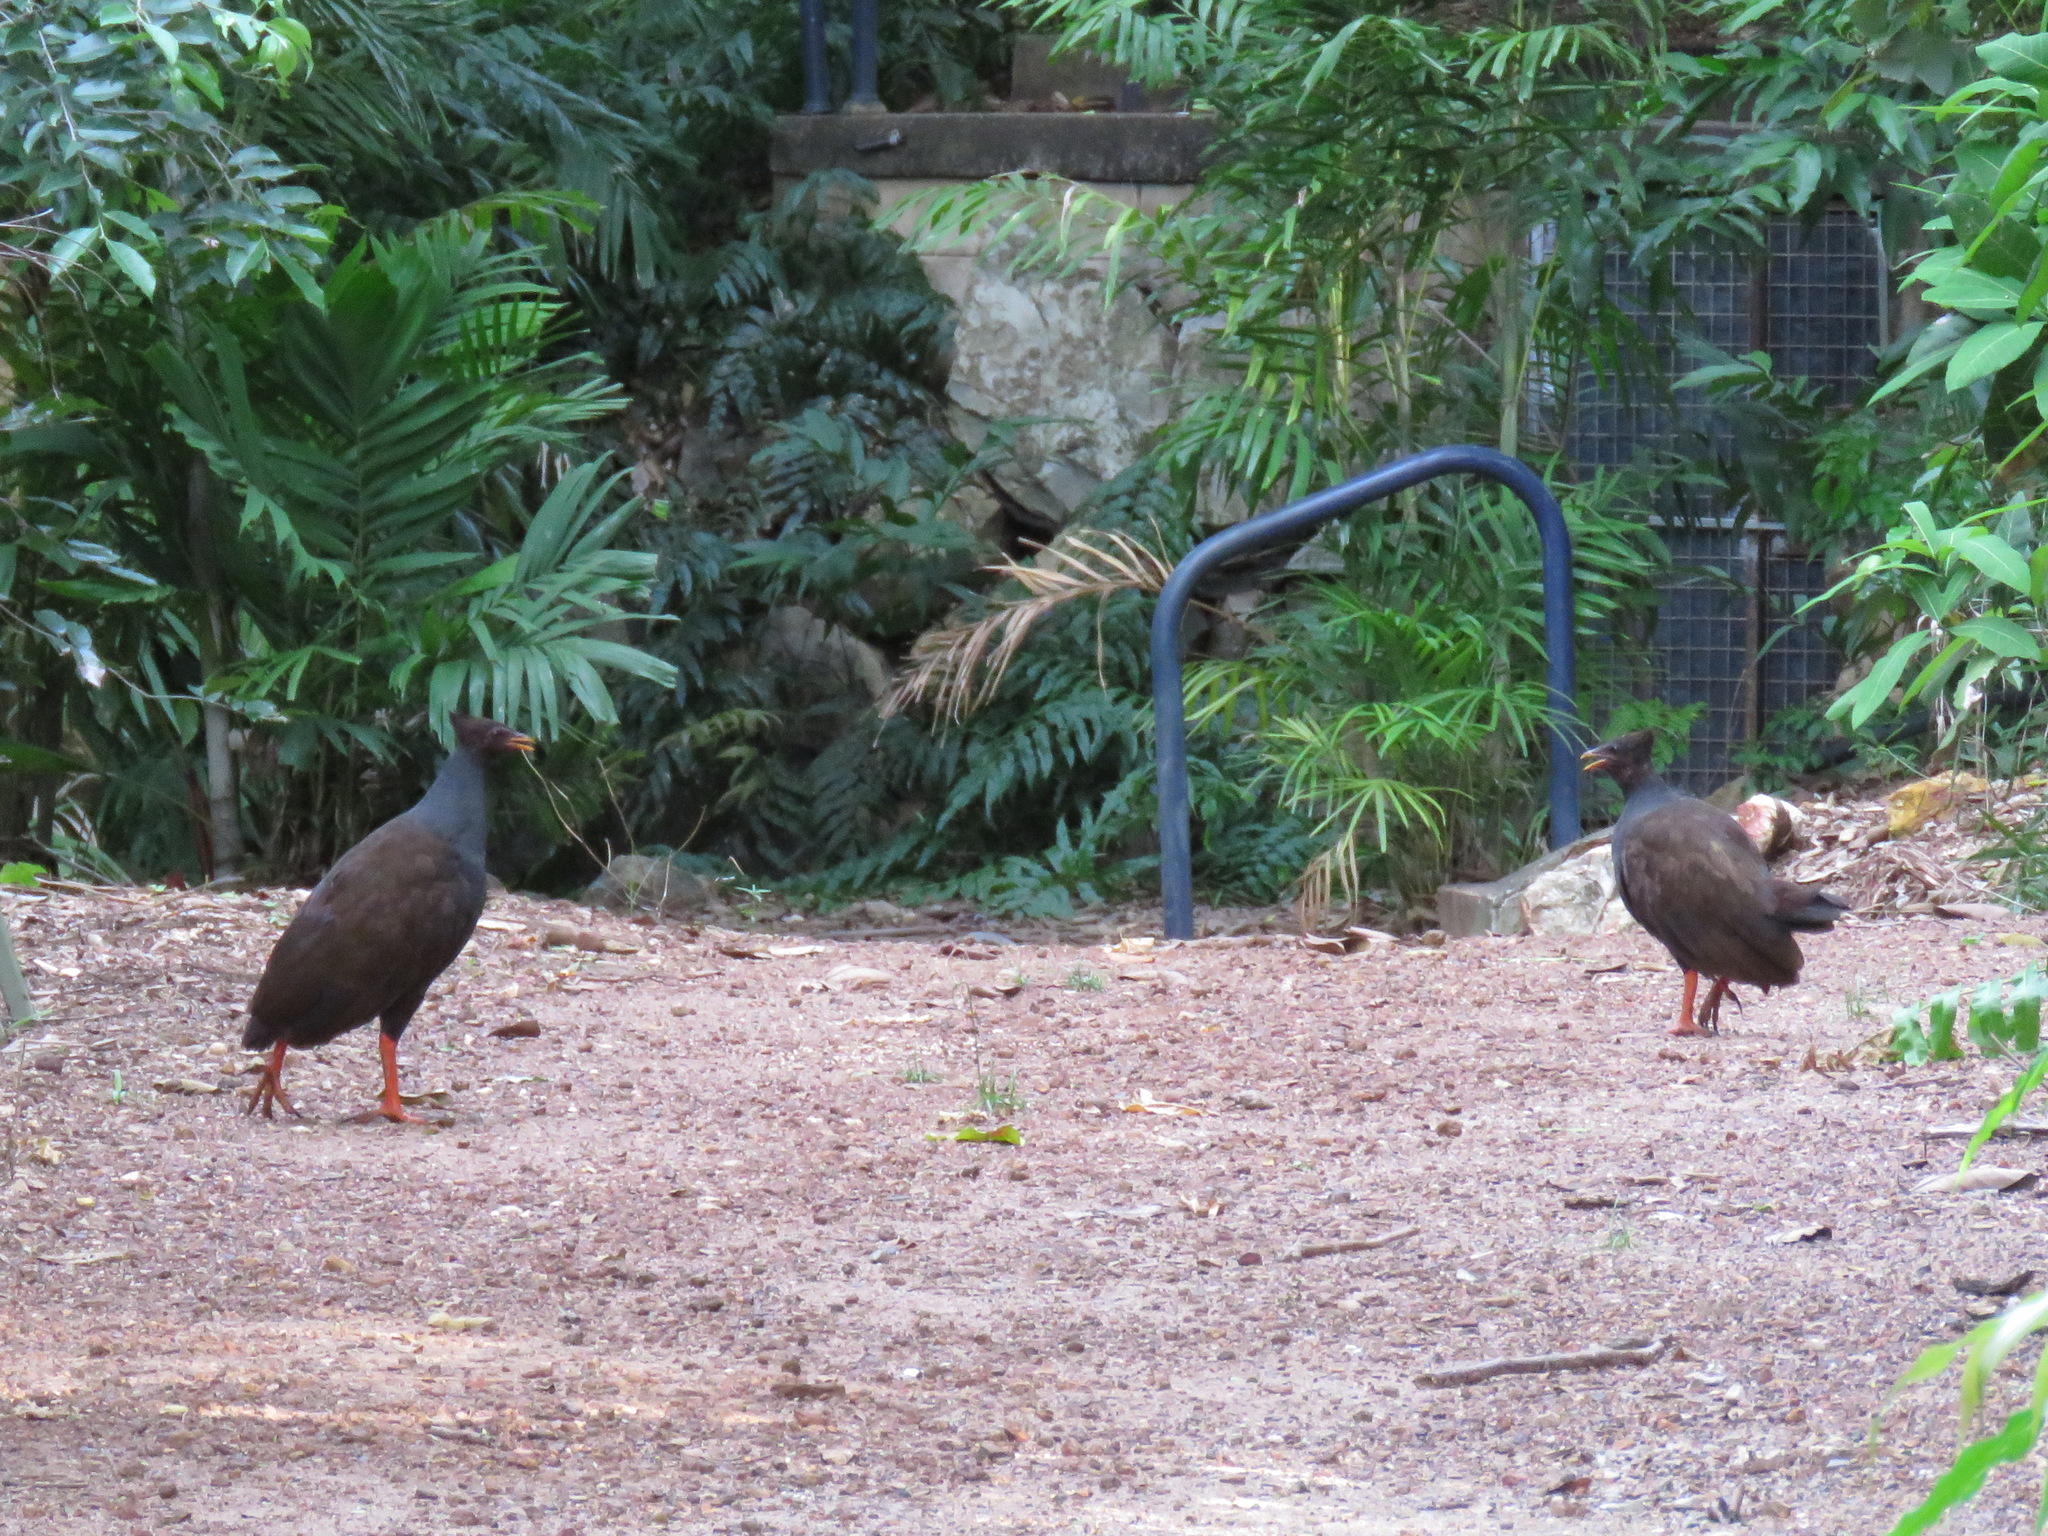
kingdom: Animalia
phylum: Chordata
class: Aves
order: Galliformes
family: Megapodiidae
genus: Megapodius
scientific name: Megapodius reinwardt
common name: Orange-footed scrubfowl
